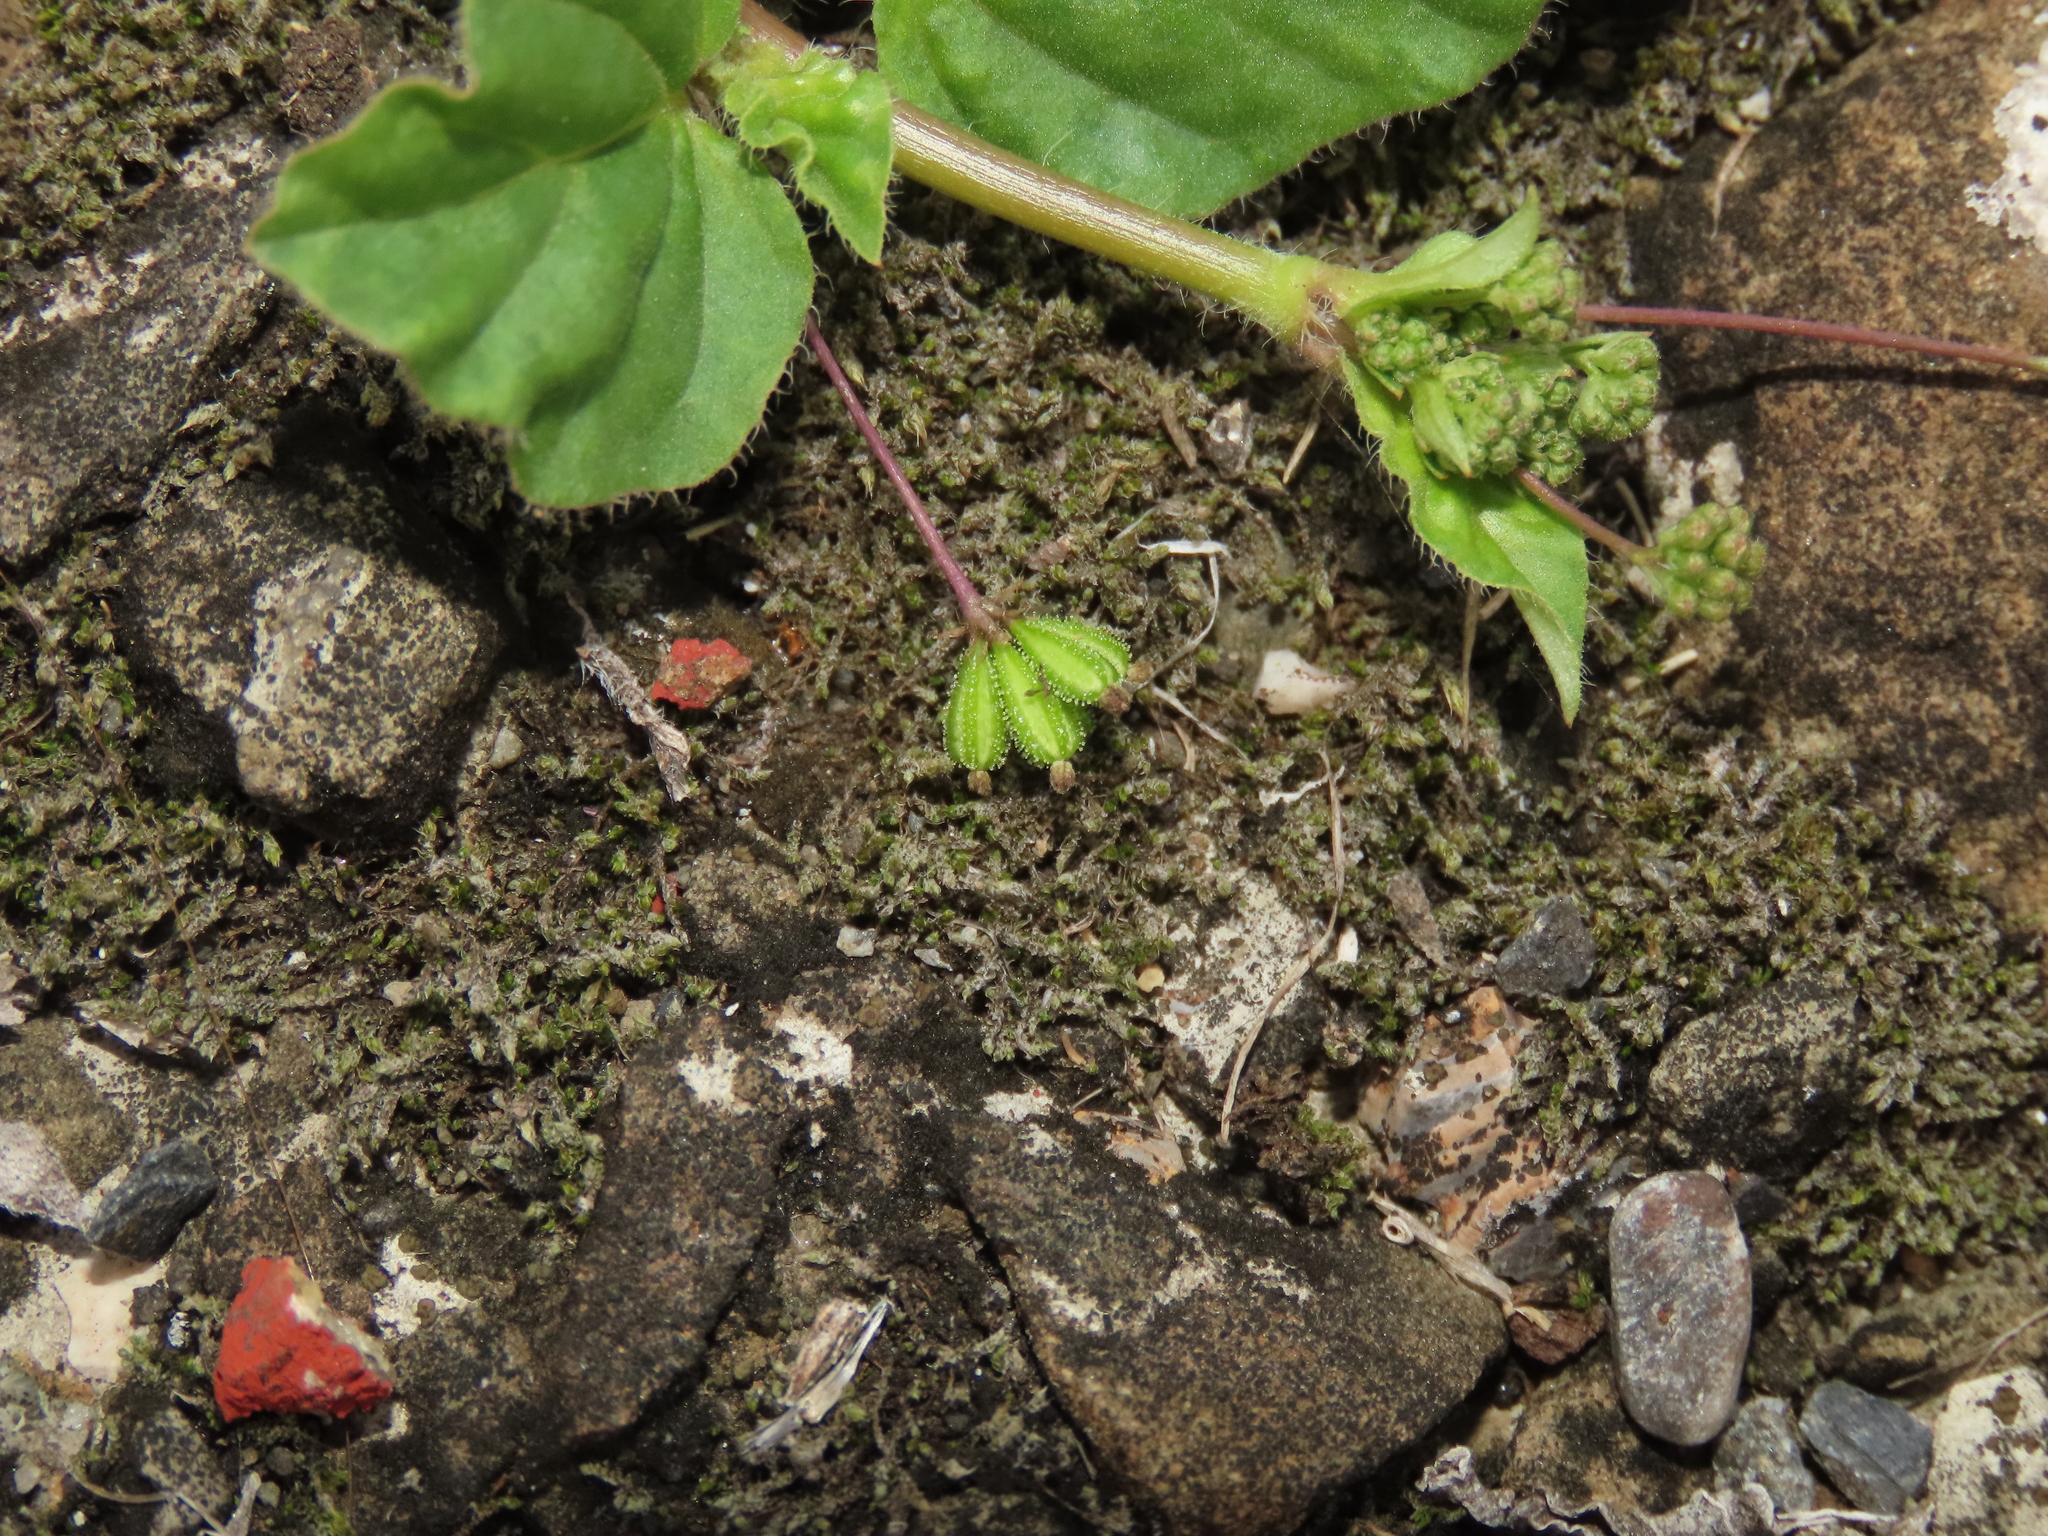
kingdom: Plantae
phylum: Tracheophyta
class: Magnoliopsida
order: Caryophyllales
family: Nyctaginaceae
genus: Boerhavia
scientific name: Boerhavia coccinea
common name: Scarlet spiderling
